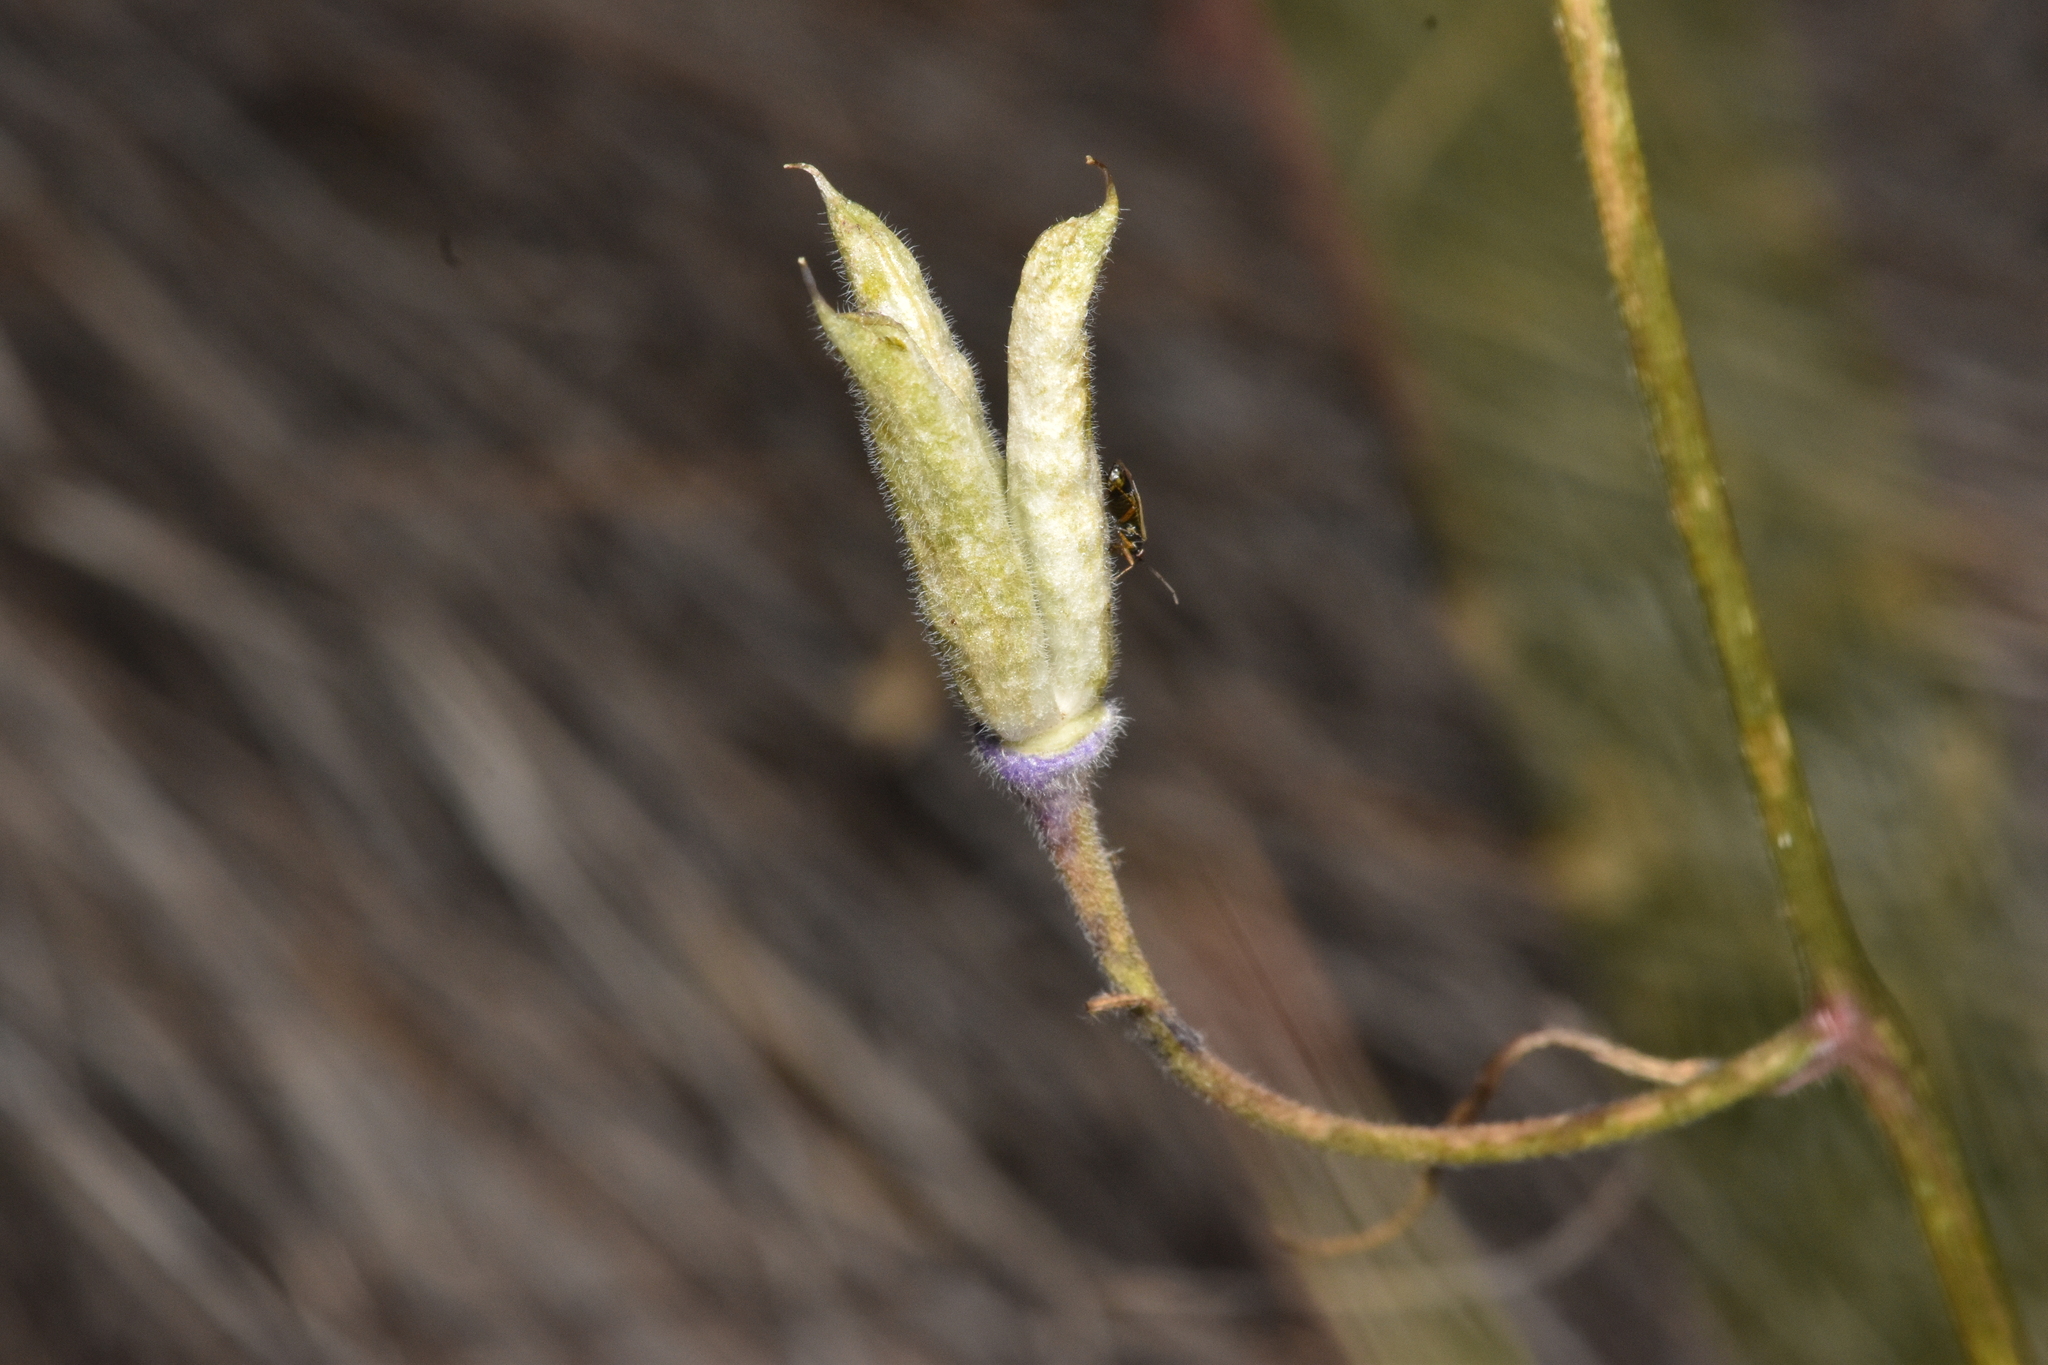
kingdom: Plantae
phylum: Tracheophyta
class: Magnoliopsida
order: Ranunculales
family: Ranunculaceae
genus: Delphinium
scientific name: Delphinium nuttallianum
